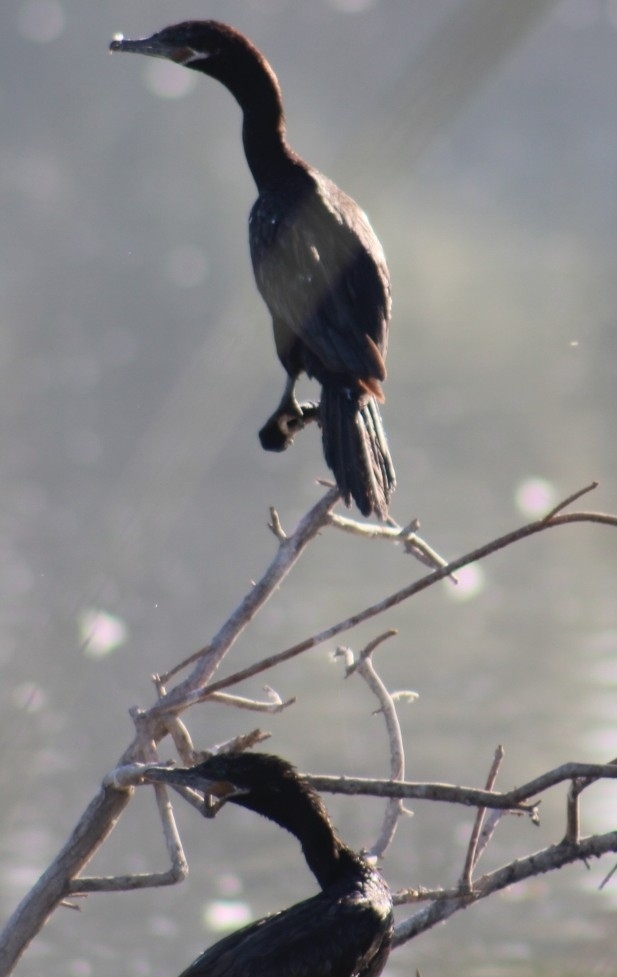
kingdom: Animalia
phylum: Chordata
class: Aves
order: Suliformes
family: Phalacrocoracidae
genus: Phalacrocorax
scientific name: Phalacrocorax brasilianus
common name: Neotropic cormorant
